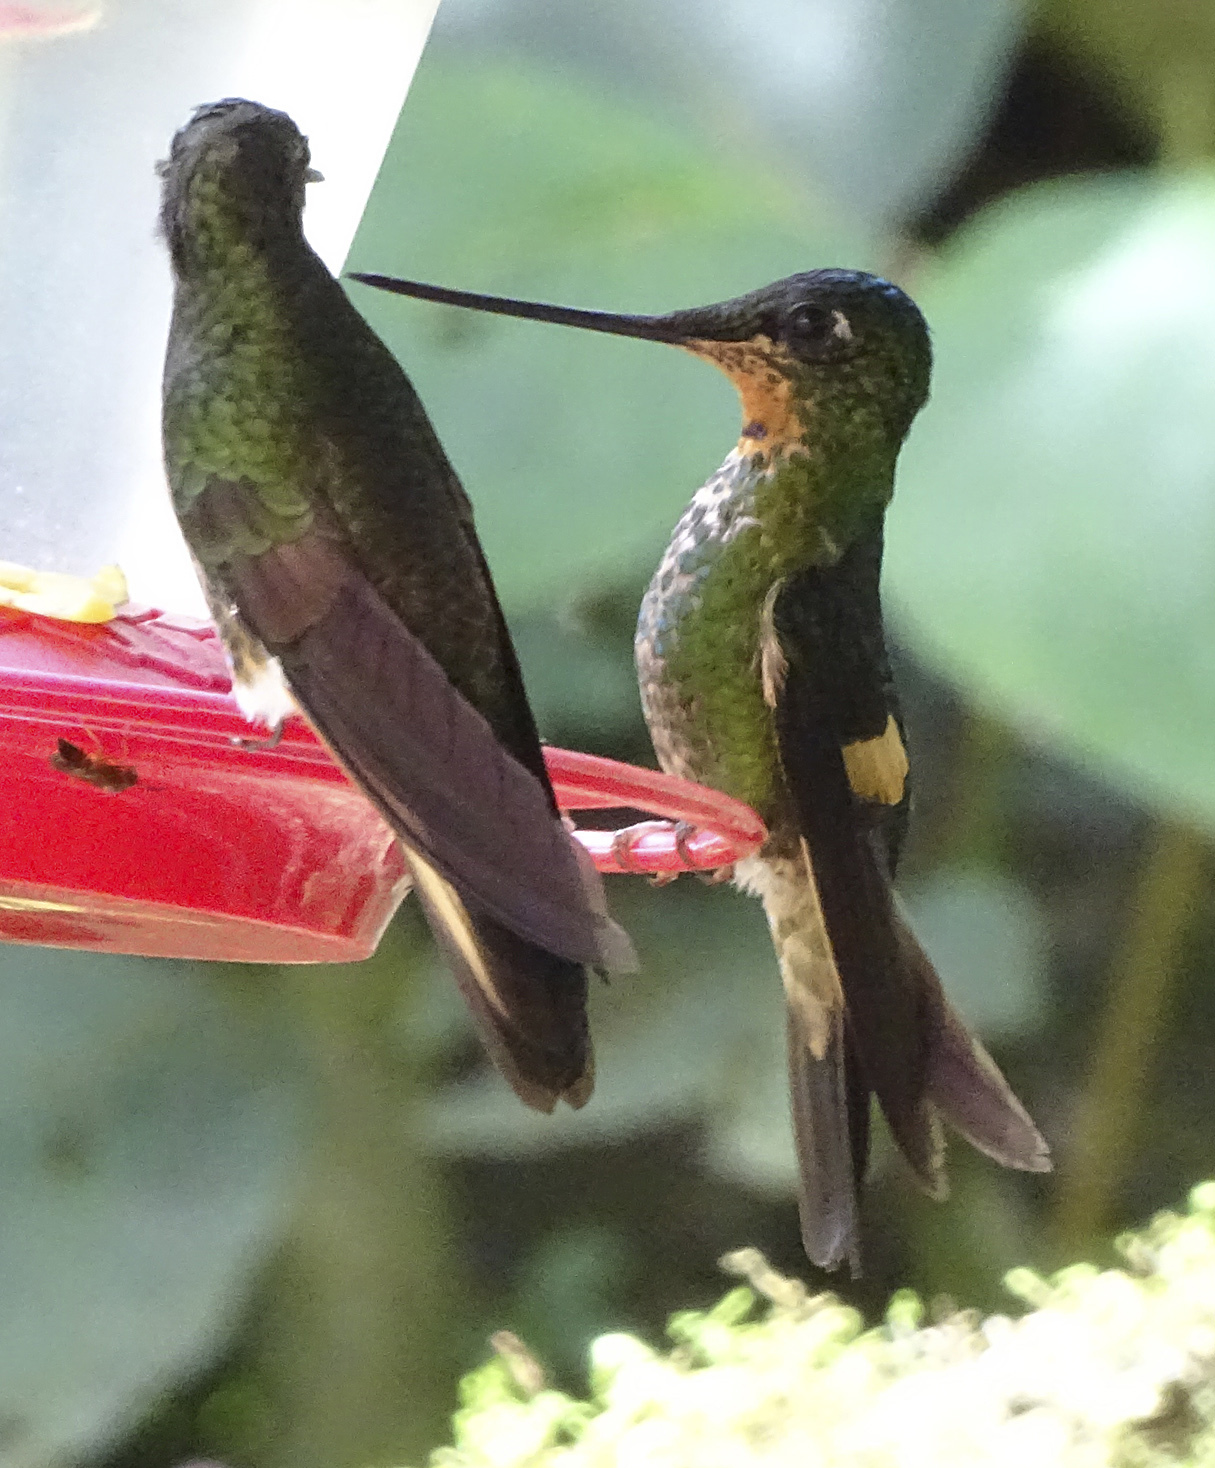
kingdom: Animalia
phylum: Chordata
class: Aves
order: Apodiformes
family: Trochilidae
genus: Coeligena
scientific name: Coeligena lutetiae
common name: Buff-winged starfrontlet
